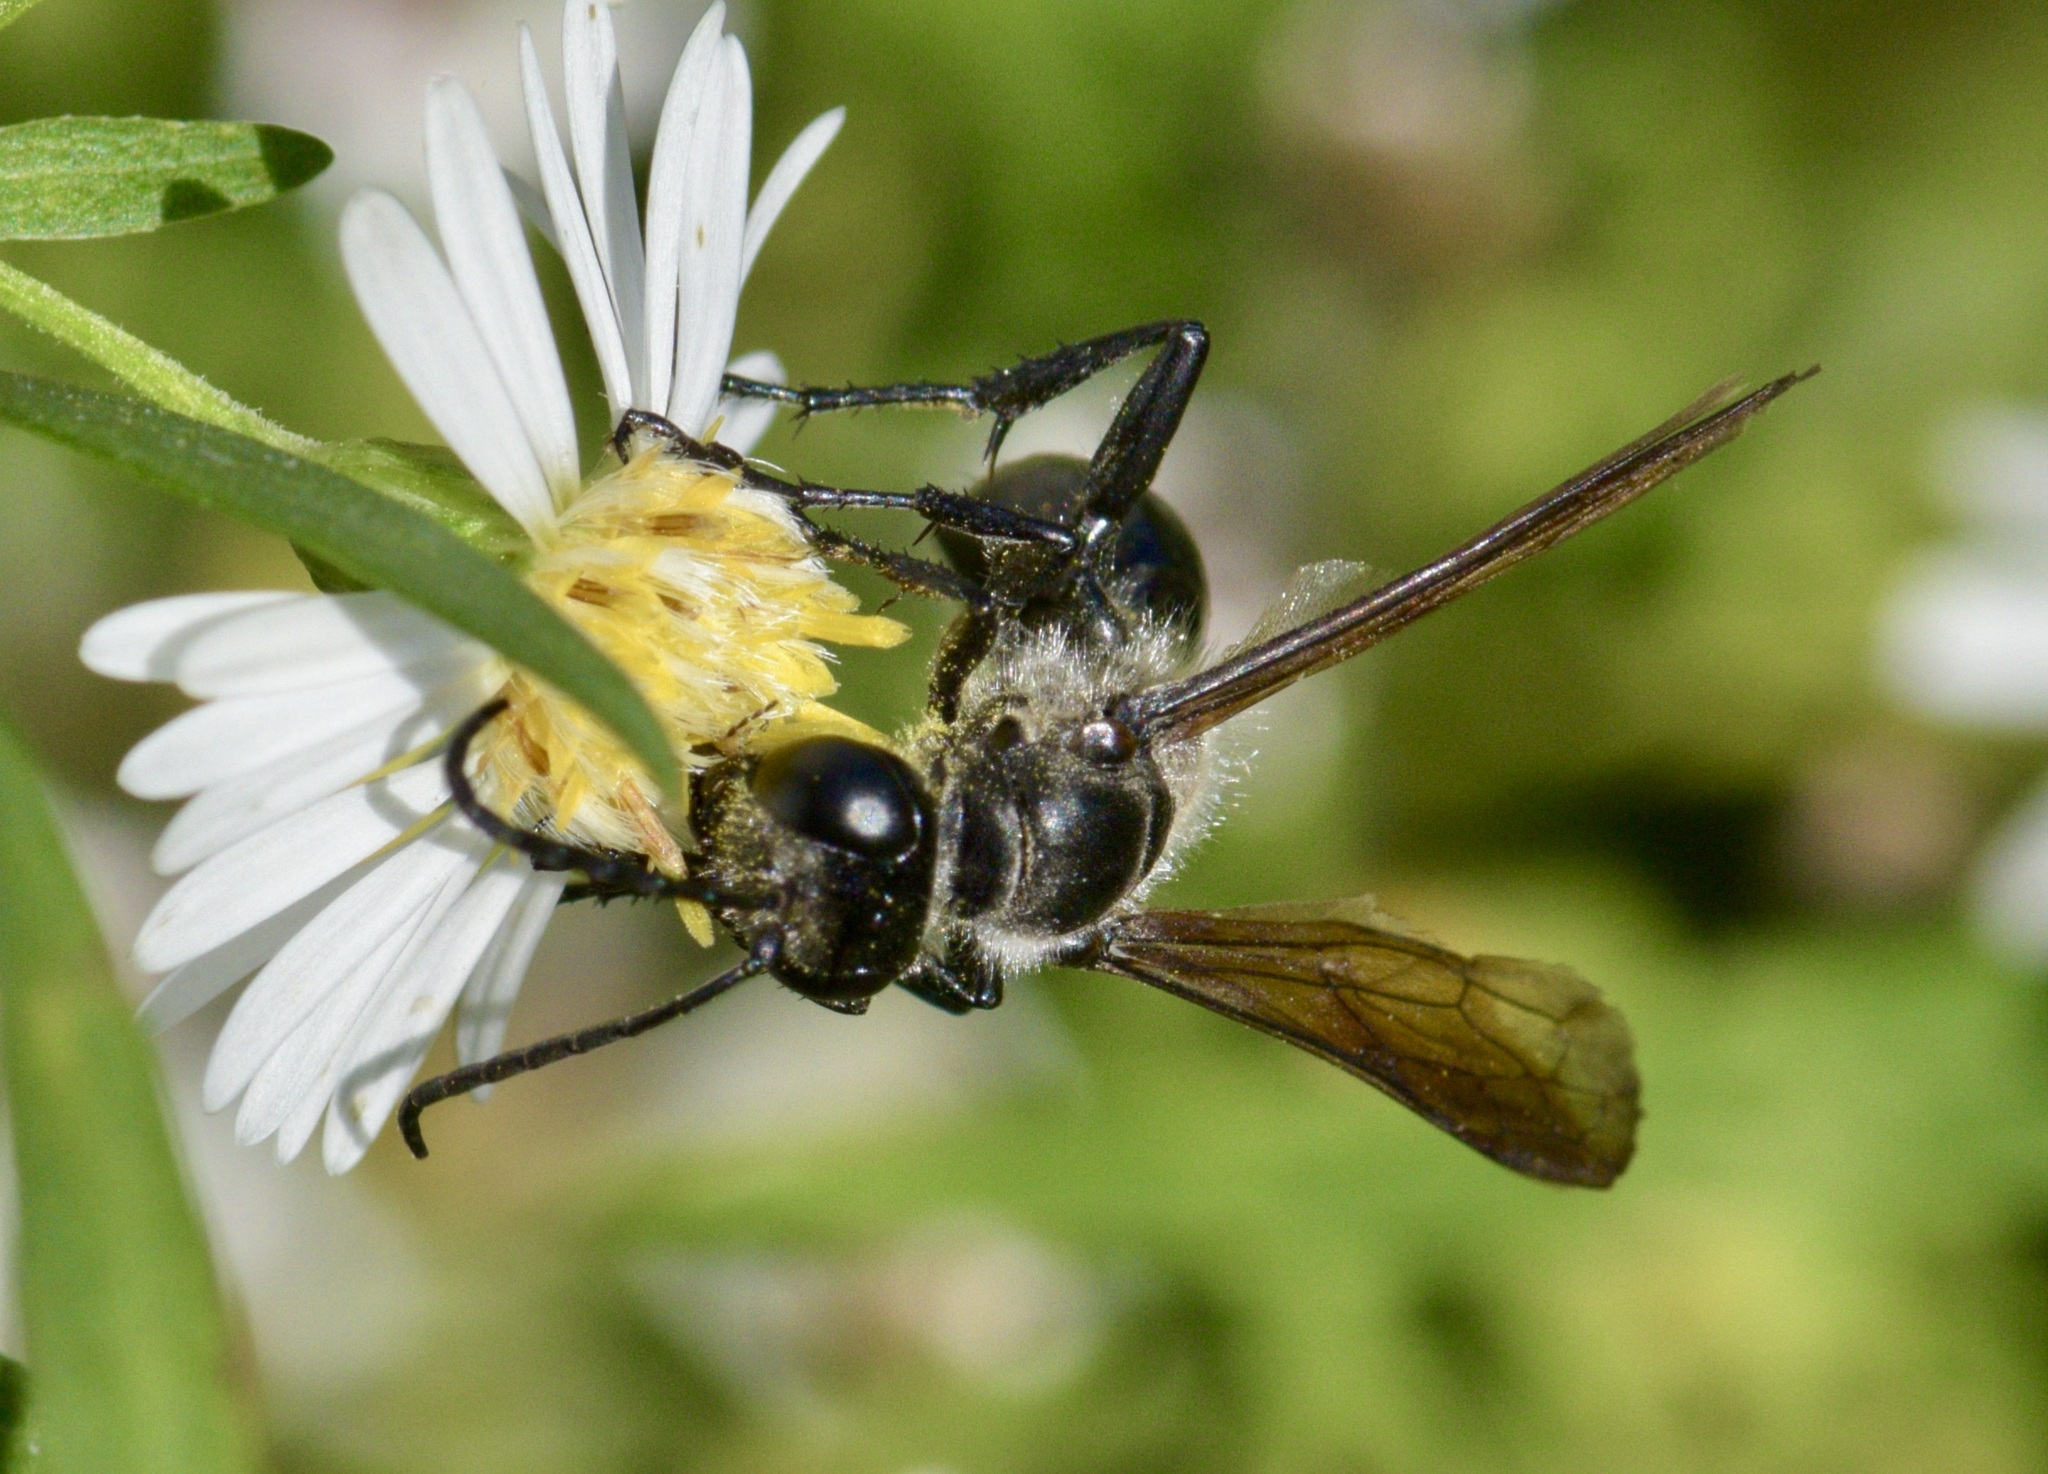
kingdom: Animalia
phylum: Arthropoda
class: Insecta
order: Hymenoptera
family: Sphecidae
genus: Isodontia
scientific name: Isodontia mexicana
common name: Mud dauber
